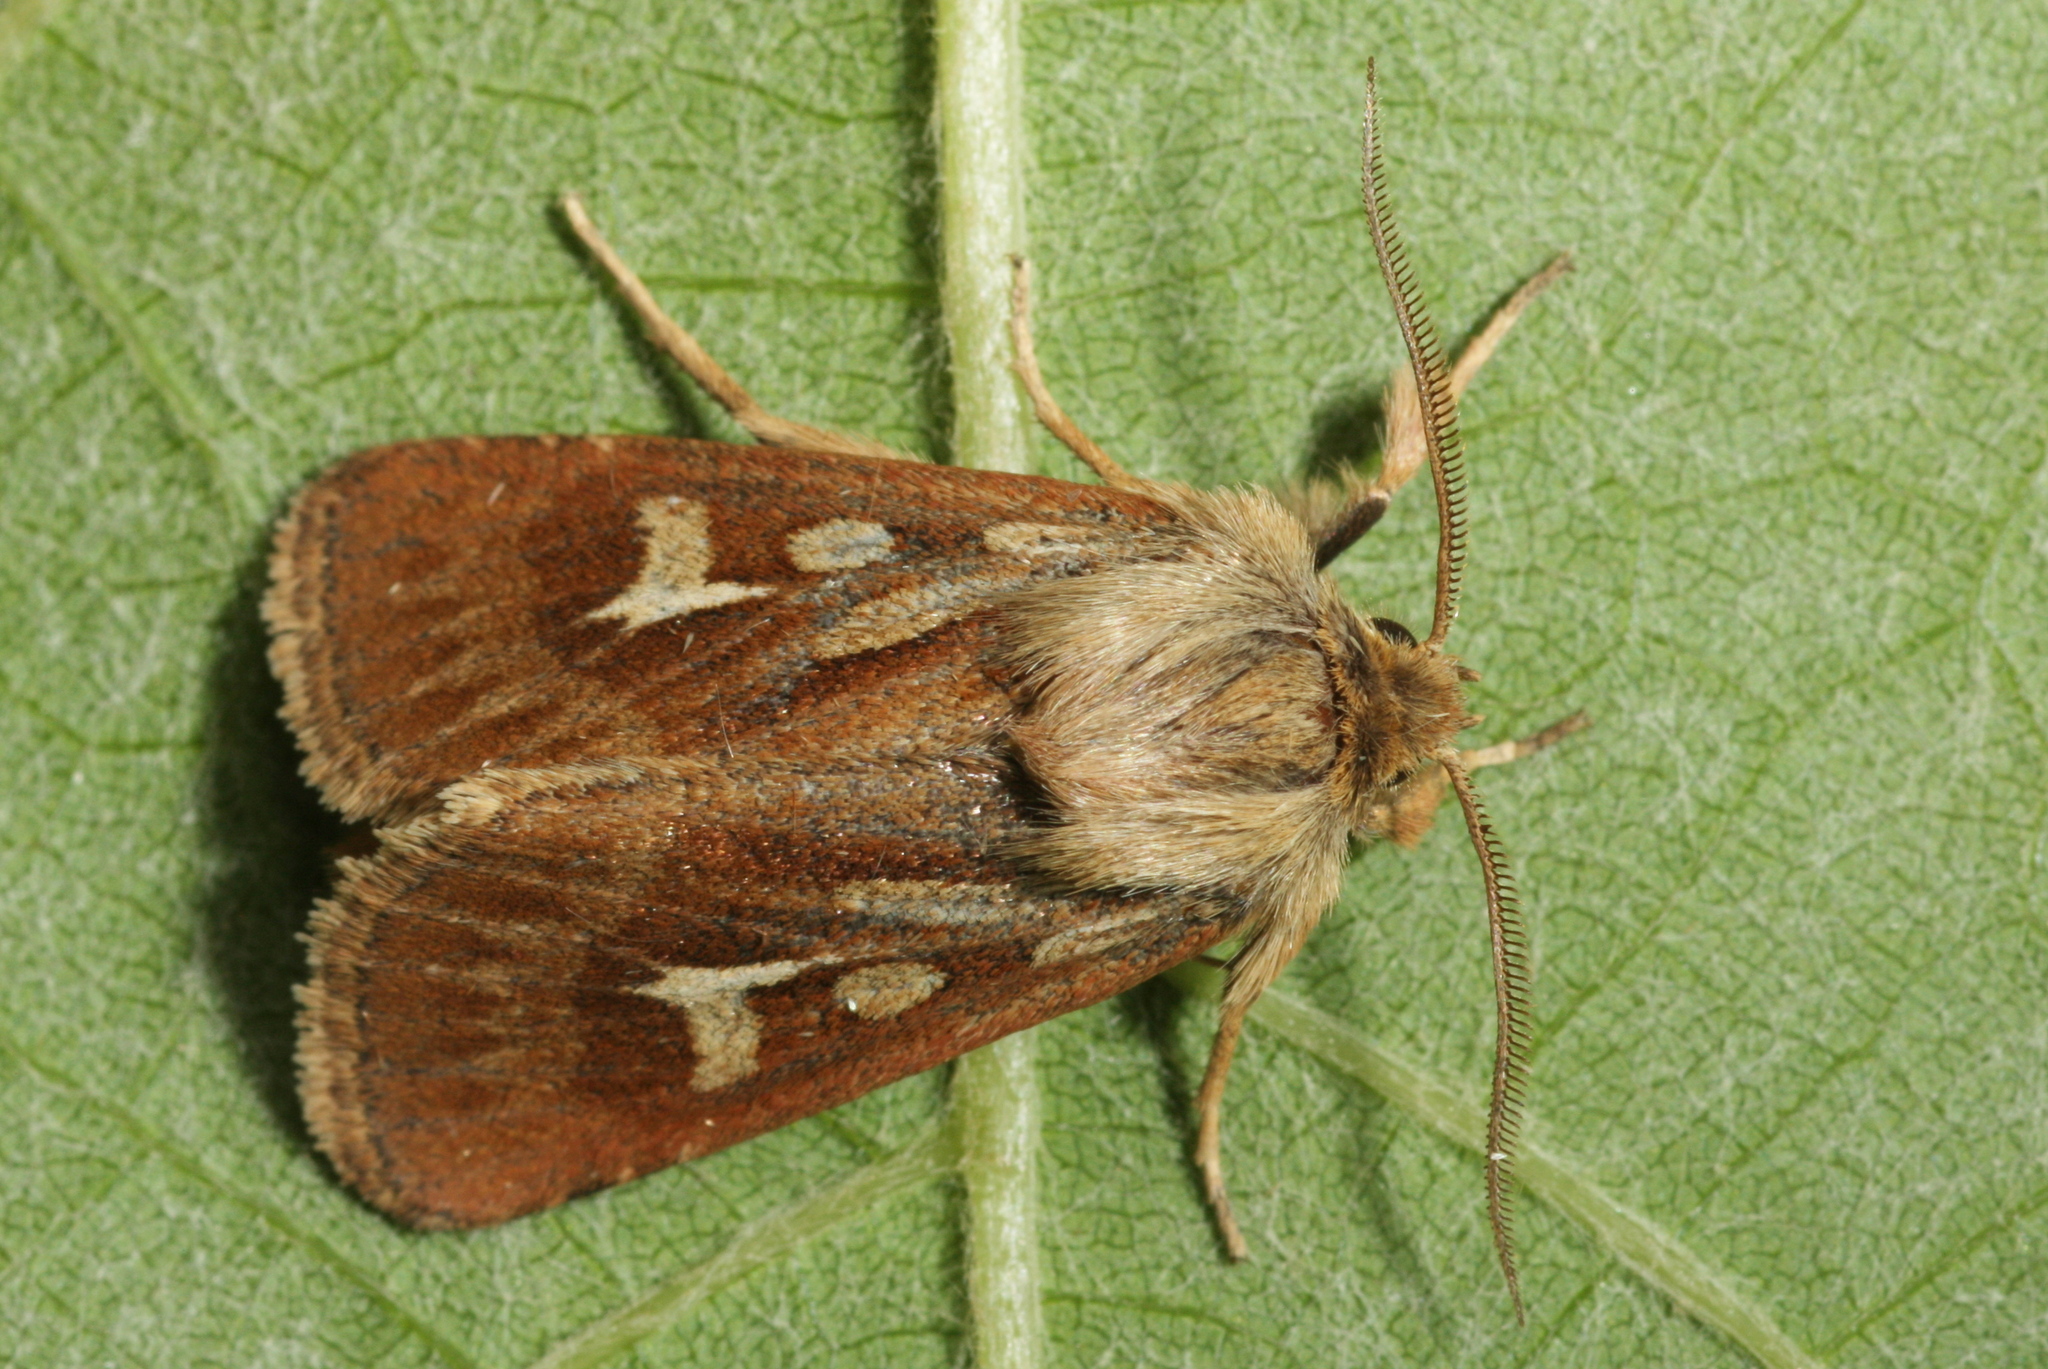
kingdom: Animalia
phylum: Arthropoda
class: Insecta
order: Lepidoptera
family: Noctuidae
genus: Cerapteryx
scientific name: Cerapteryx graminis
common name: Antler moth
